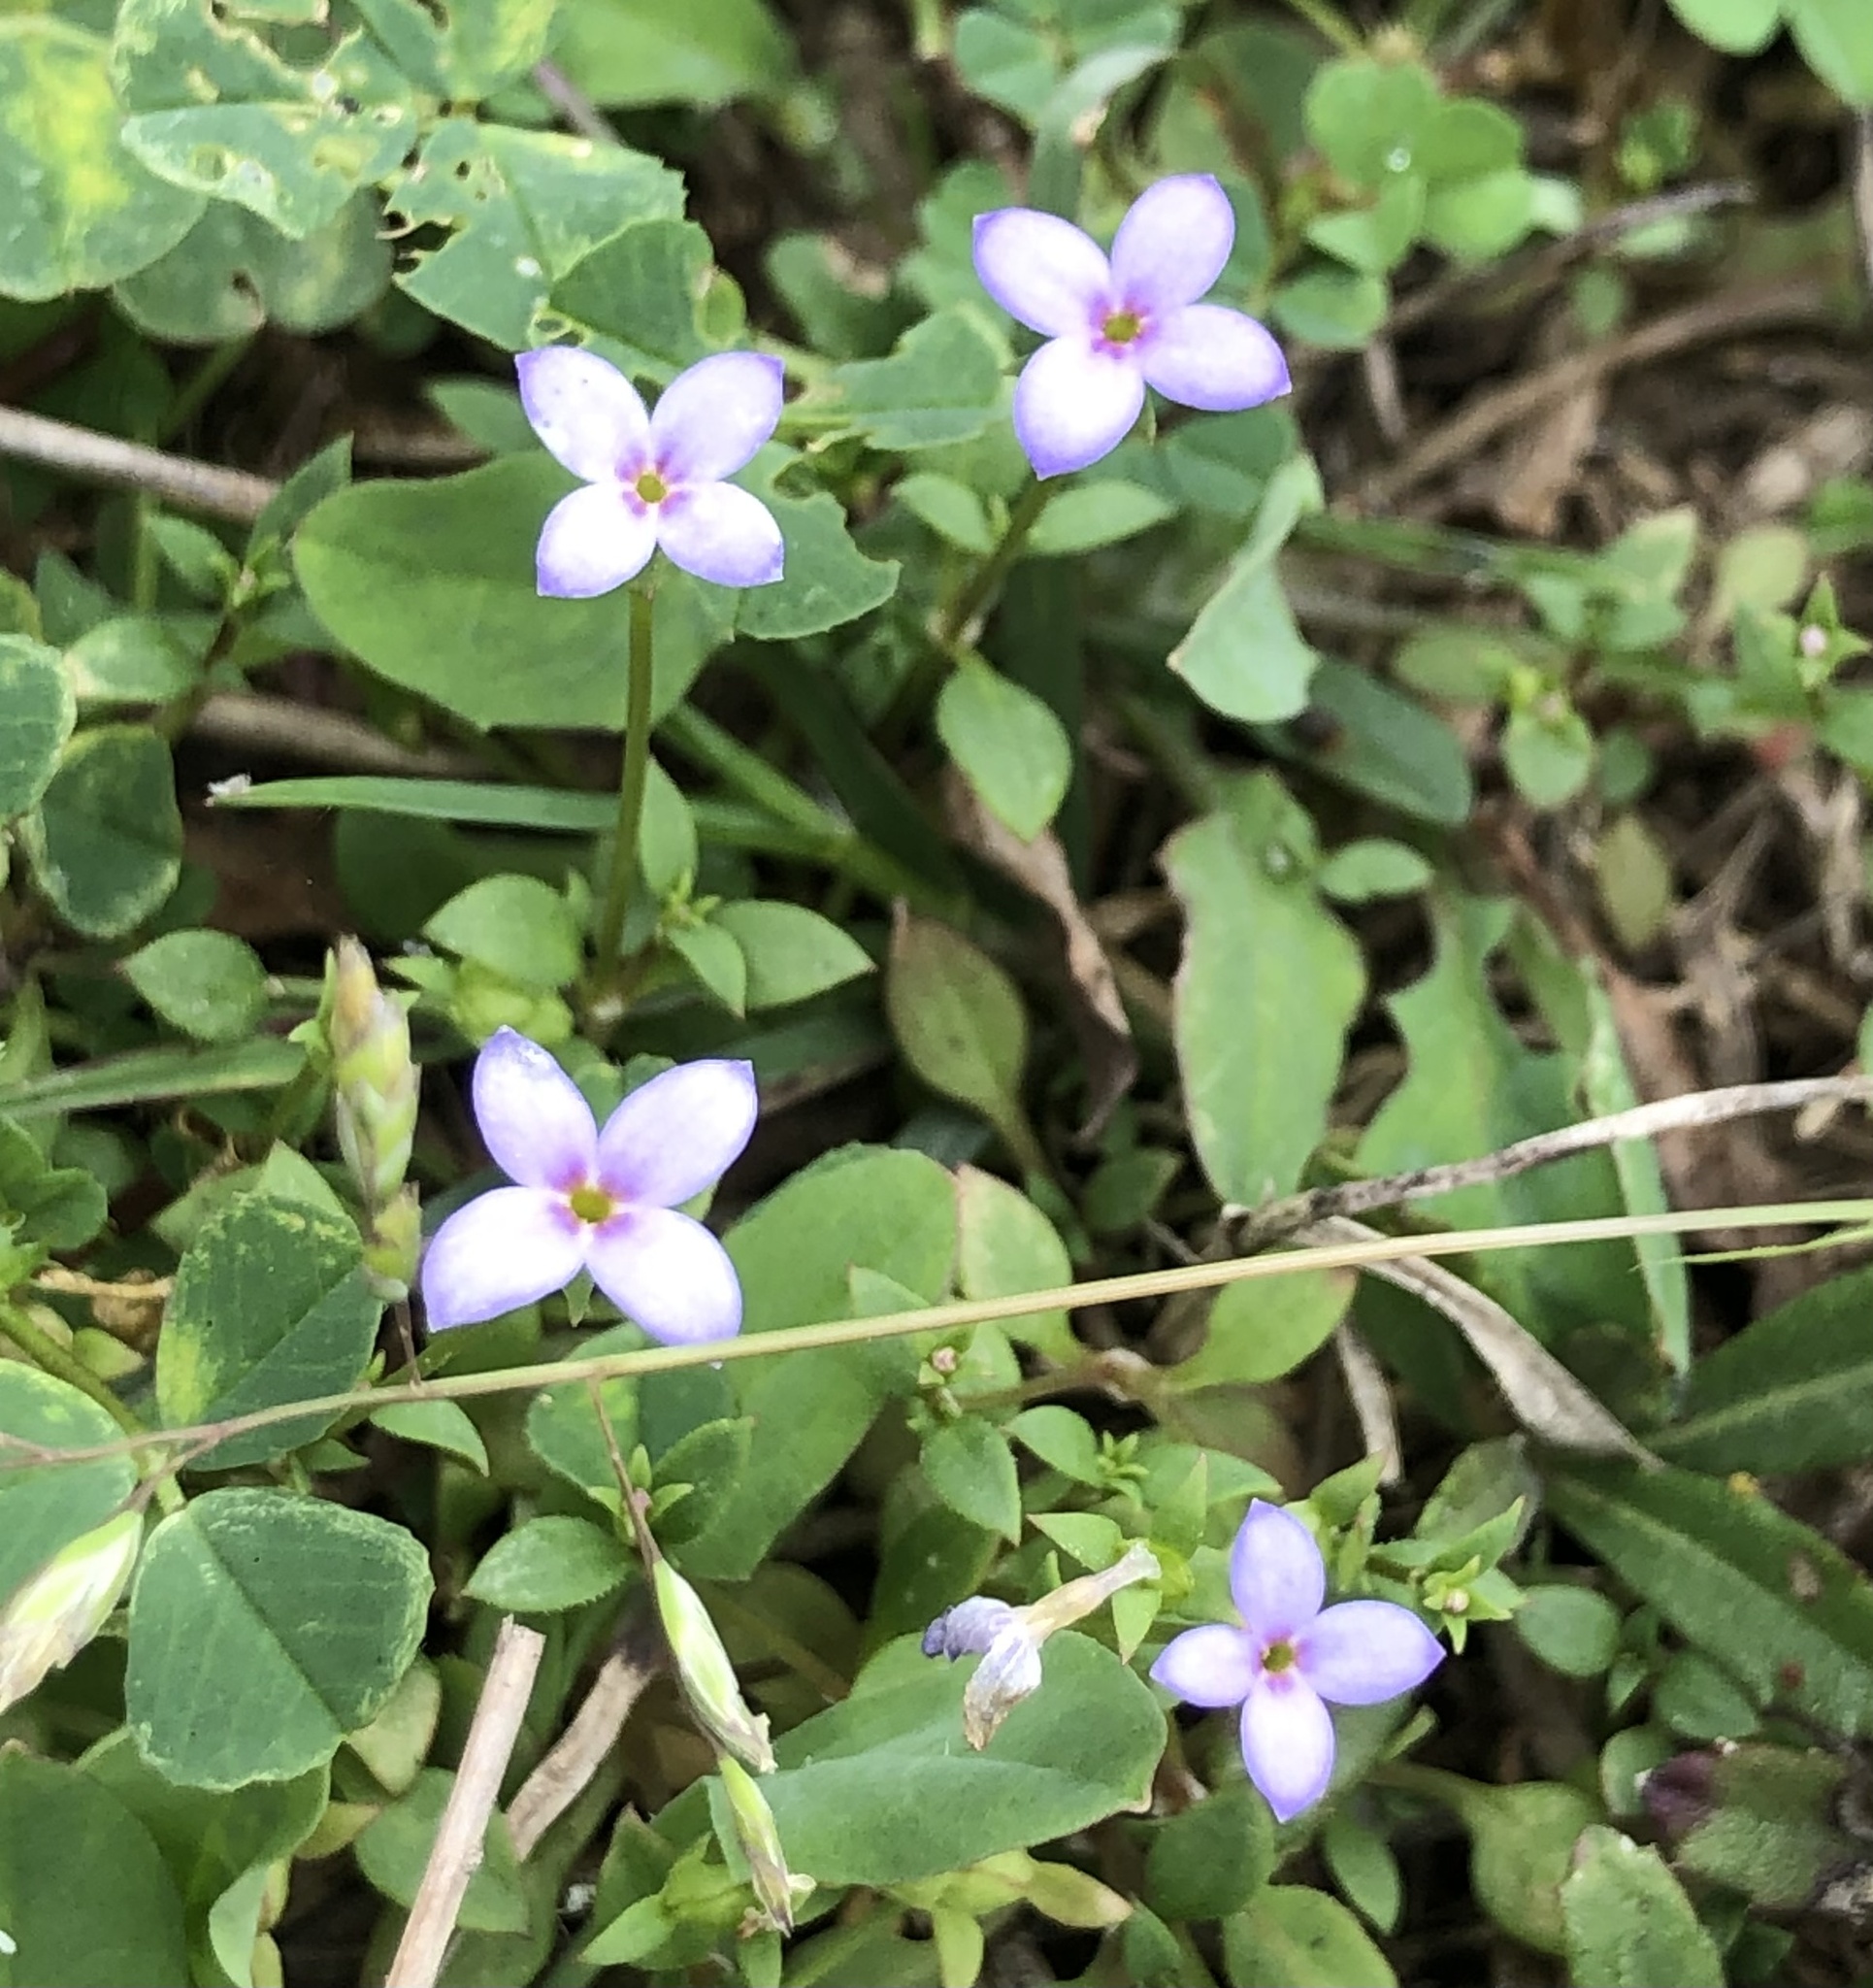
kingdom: Plantae
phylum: Tracheophyta
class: Magnoliopsida
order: Gentianales
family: Rubiaceae
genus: Houstonia
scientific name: Houstonia pusilla
